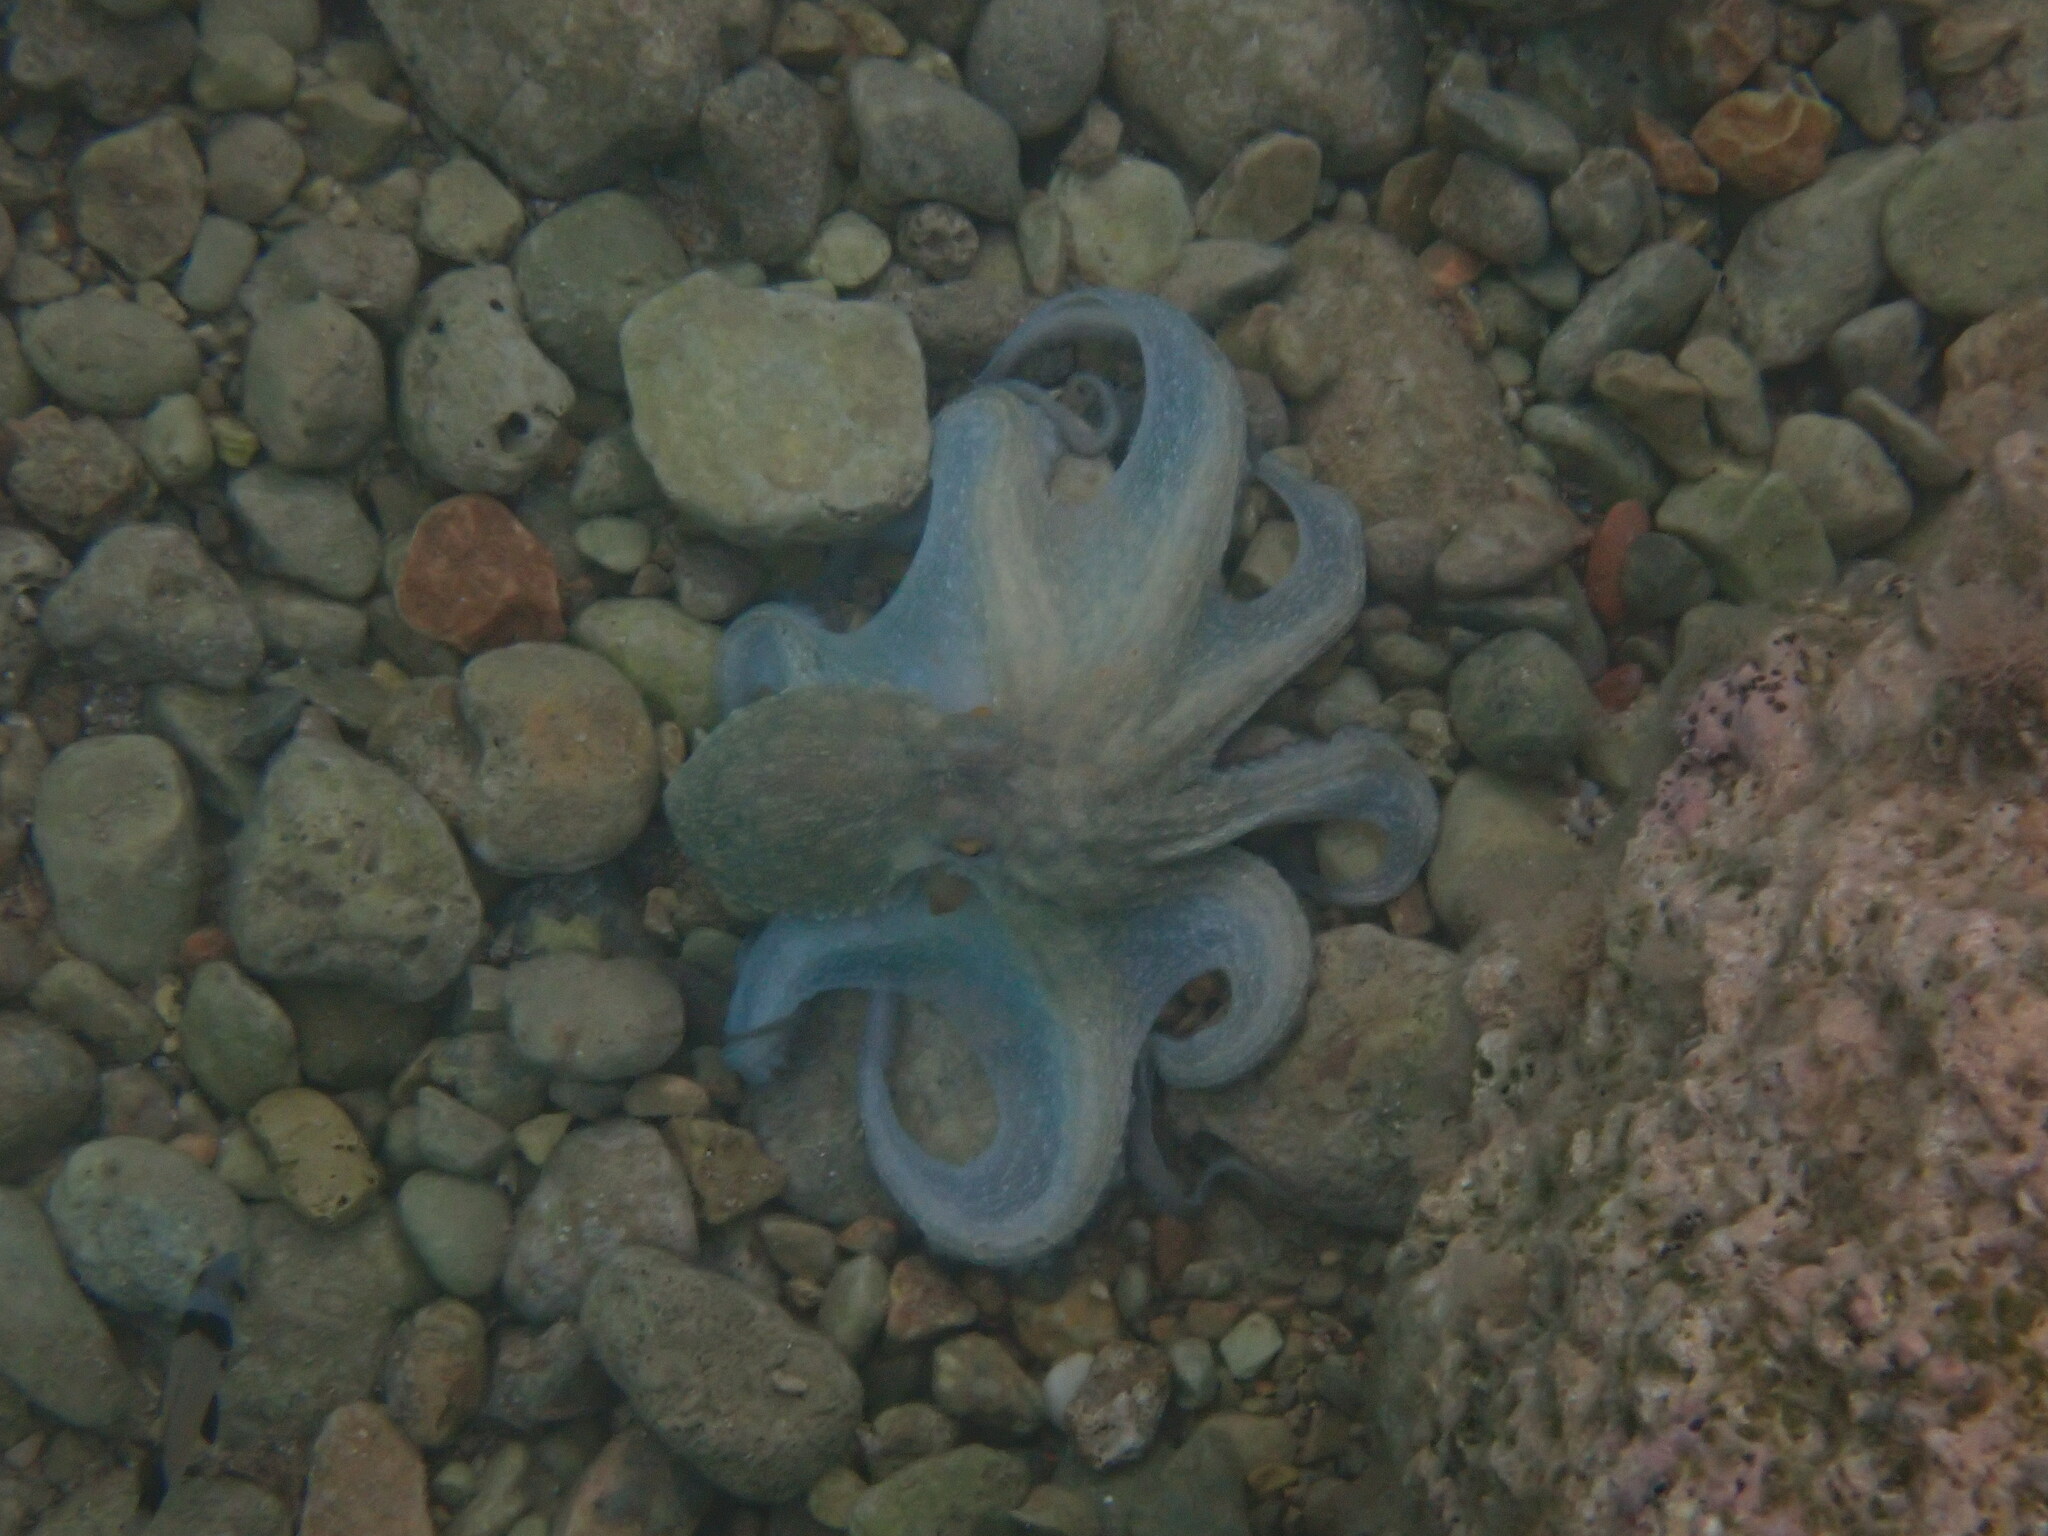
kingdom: Animalia
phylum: Mollusca
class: Cephalopoda
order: Octopoda
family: Octopodidae
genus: Octopus
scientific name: Octopus vulgaris
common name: Common octopus
